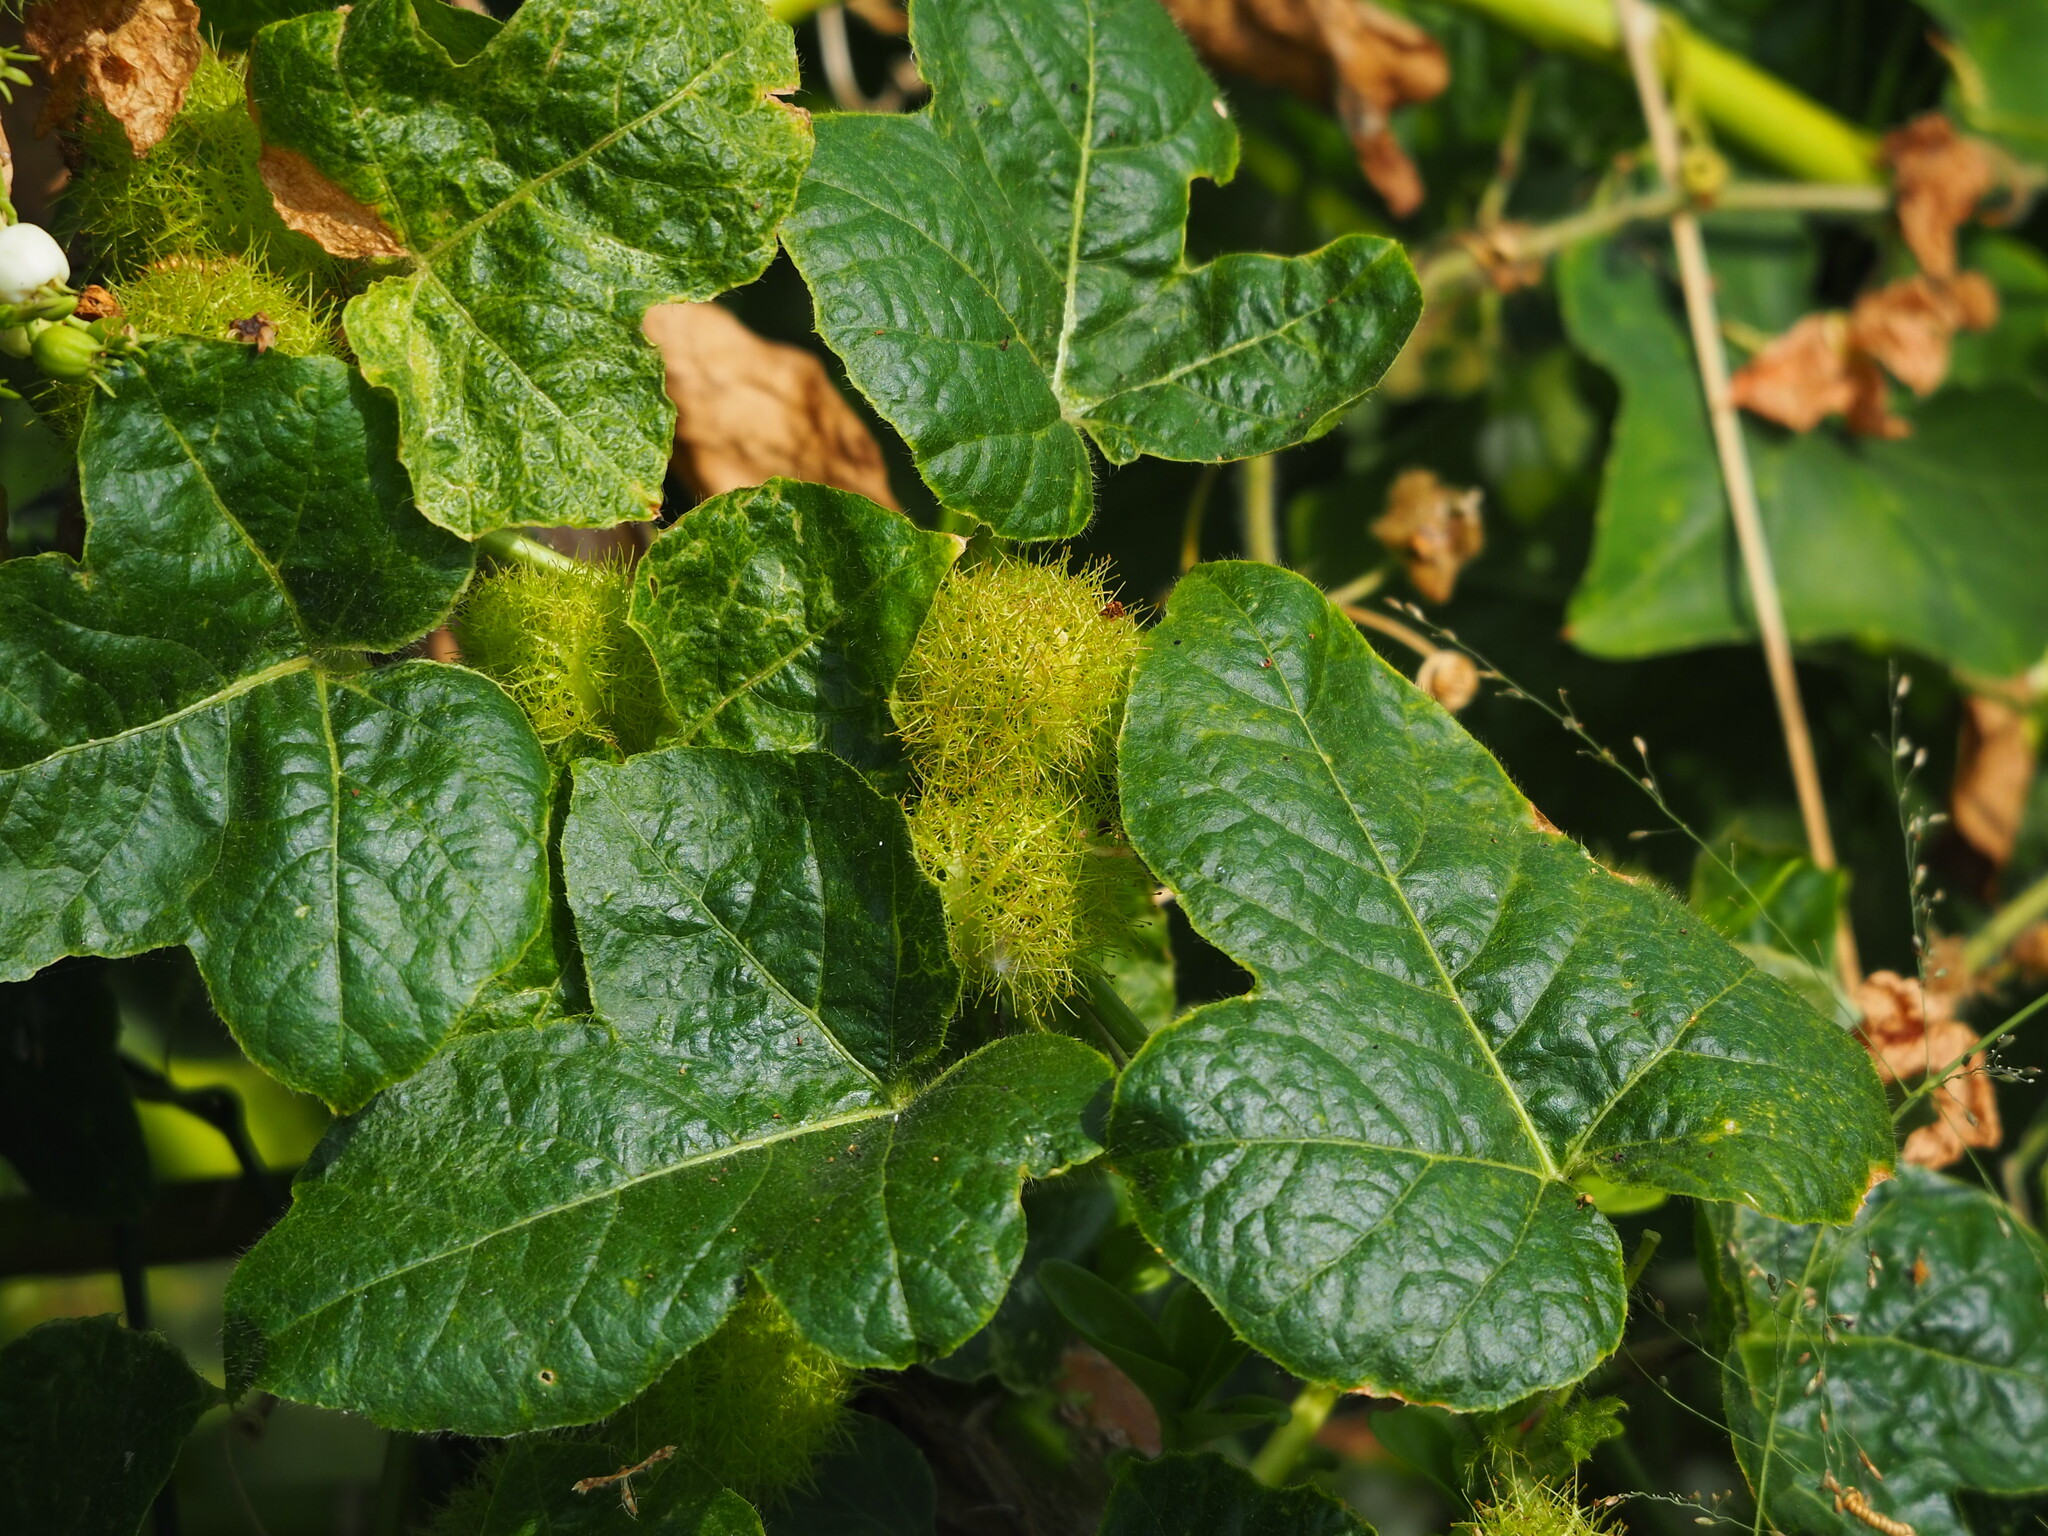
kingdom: Plantae
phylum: Tracheophyta
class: Magnoliopsida
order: Malpighiales
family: Passifloraceae
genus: Passiflora
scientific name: Passiflora vesicaria
